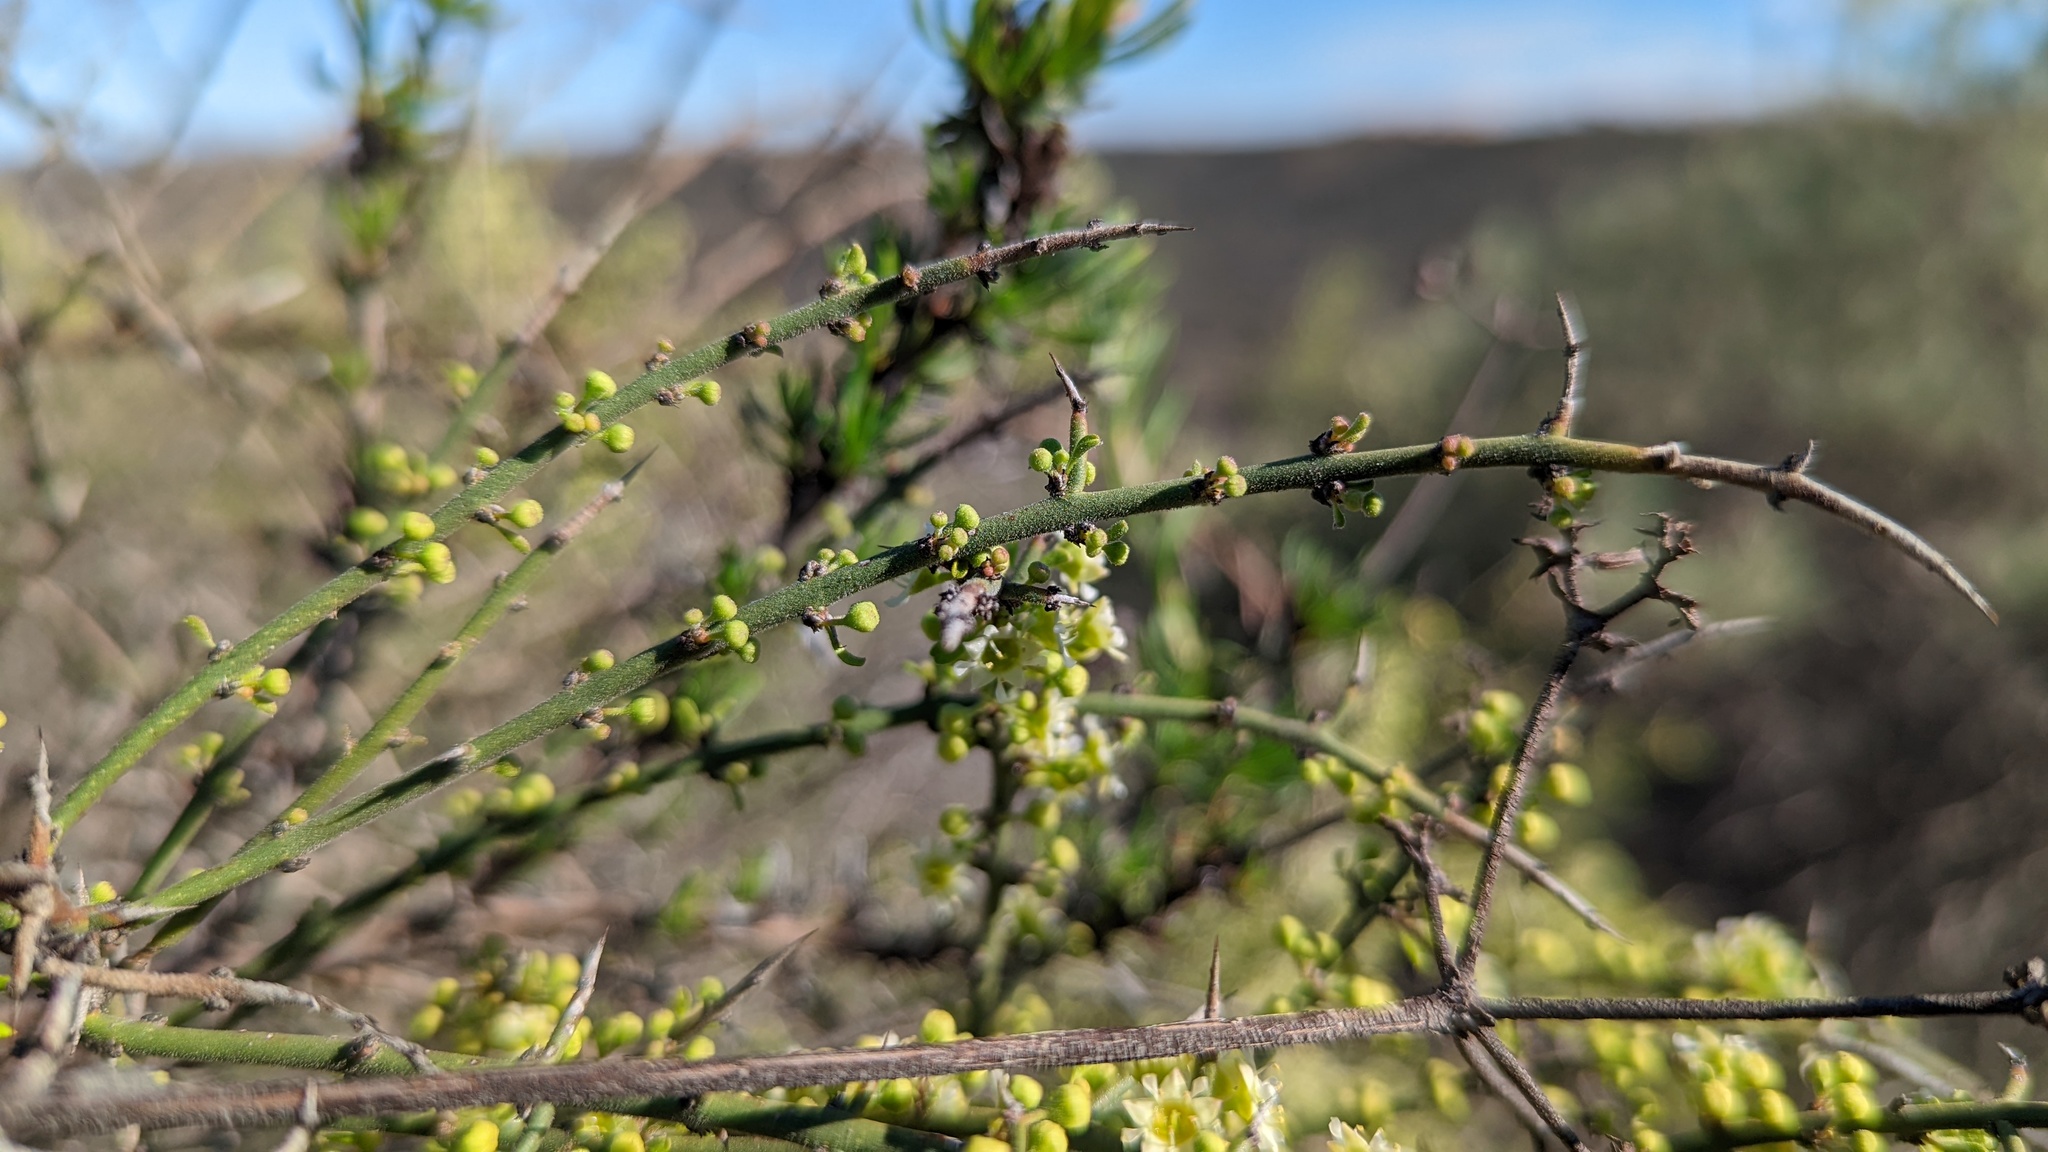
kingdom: Plantae
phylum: Tracheophyta
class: Magnoliopsida
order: Rosales
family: Rhamnaceae
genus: Adolphia
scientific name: Adolphia californica
